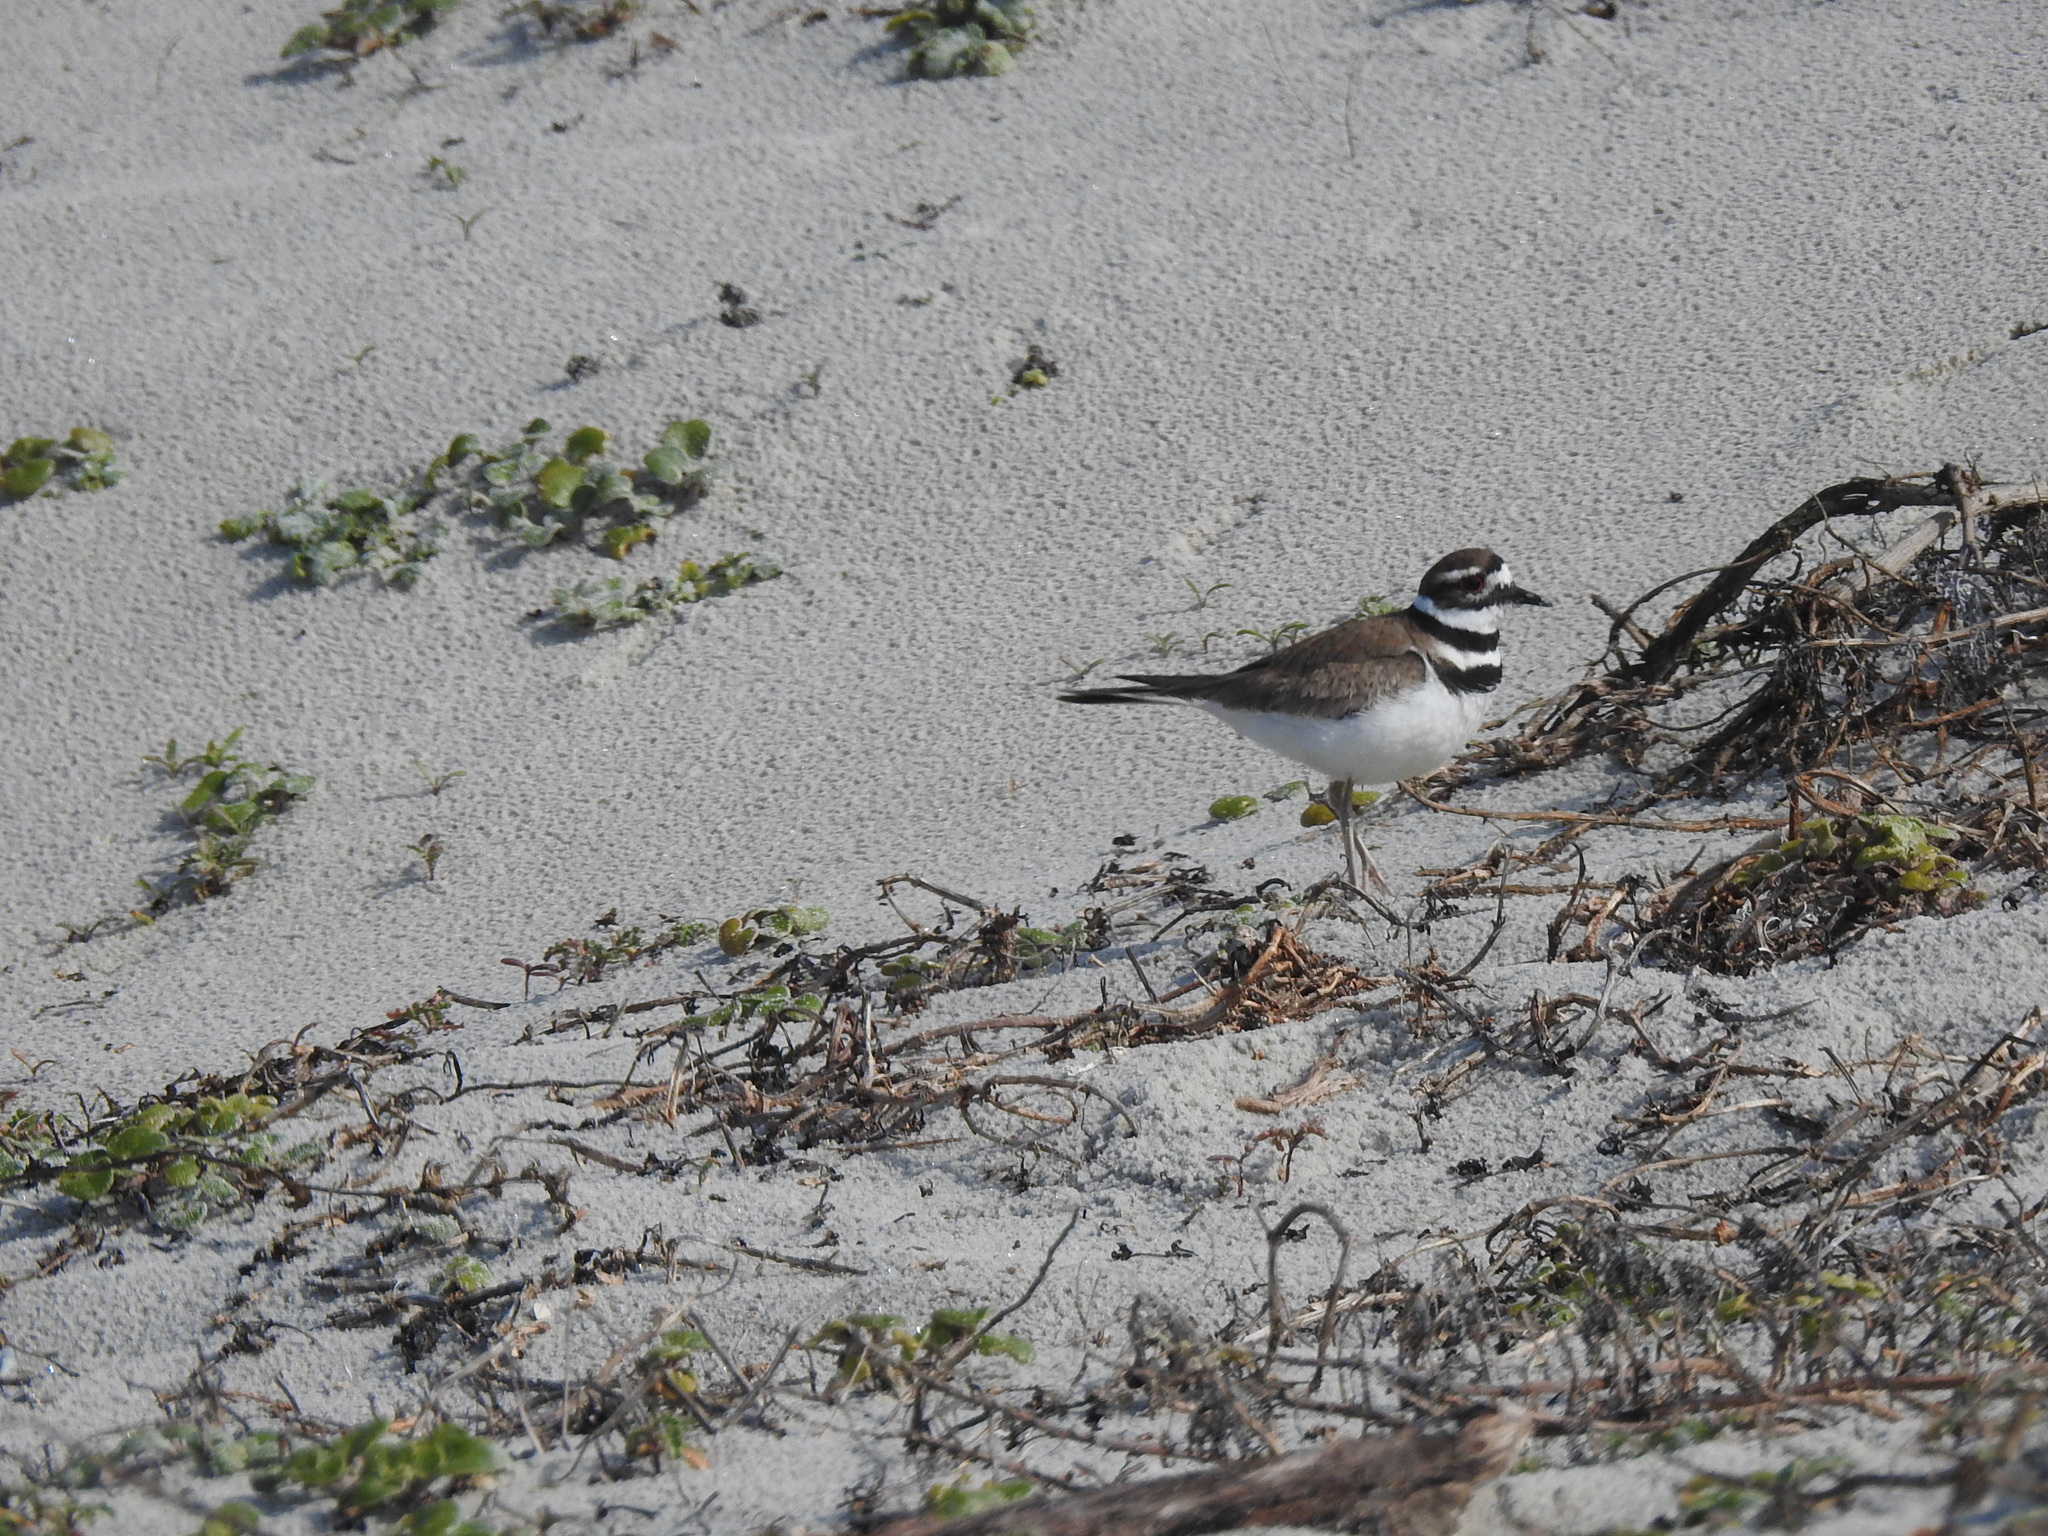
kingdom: Animalia
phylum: Chordata
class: Aves
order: Charadriiformes
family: Charadriidae
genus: Charadrius
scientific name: Charadrius vociferus
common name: Killdeer
